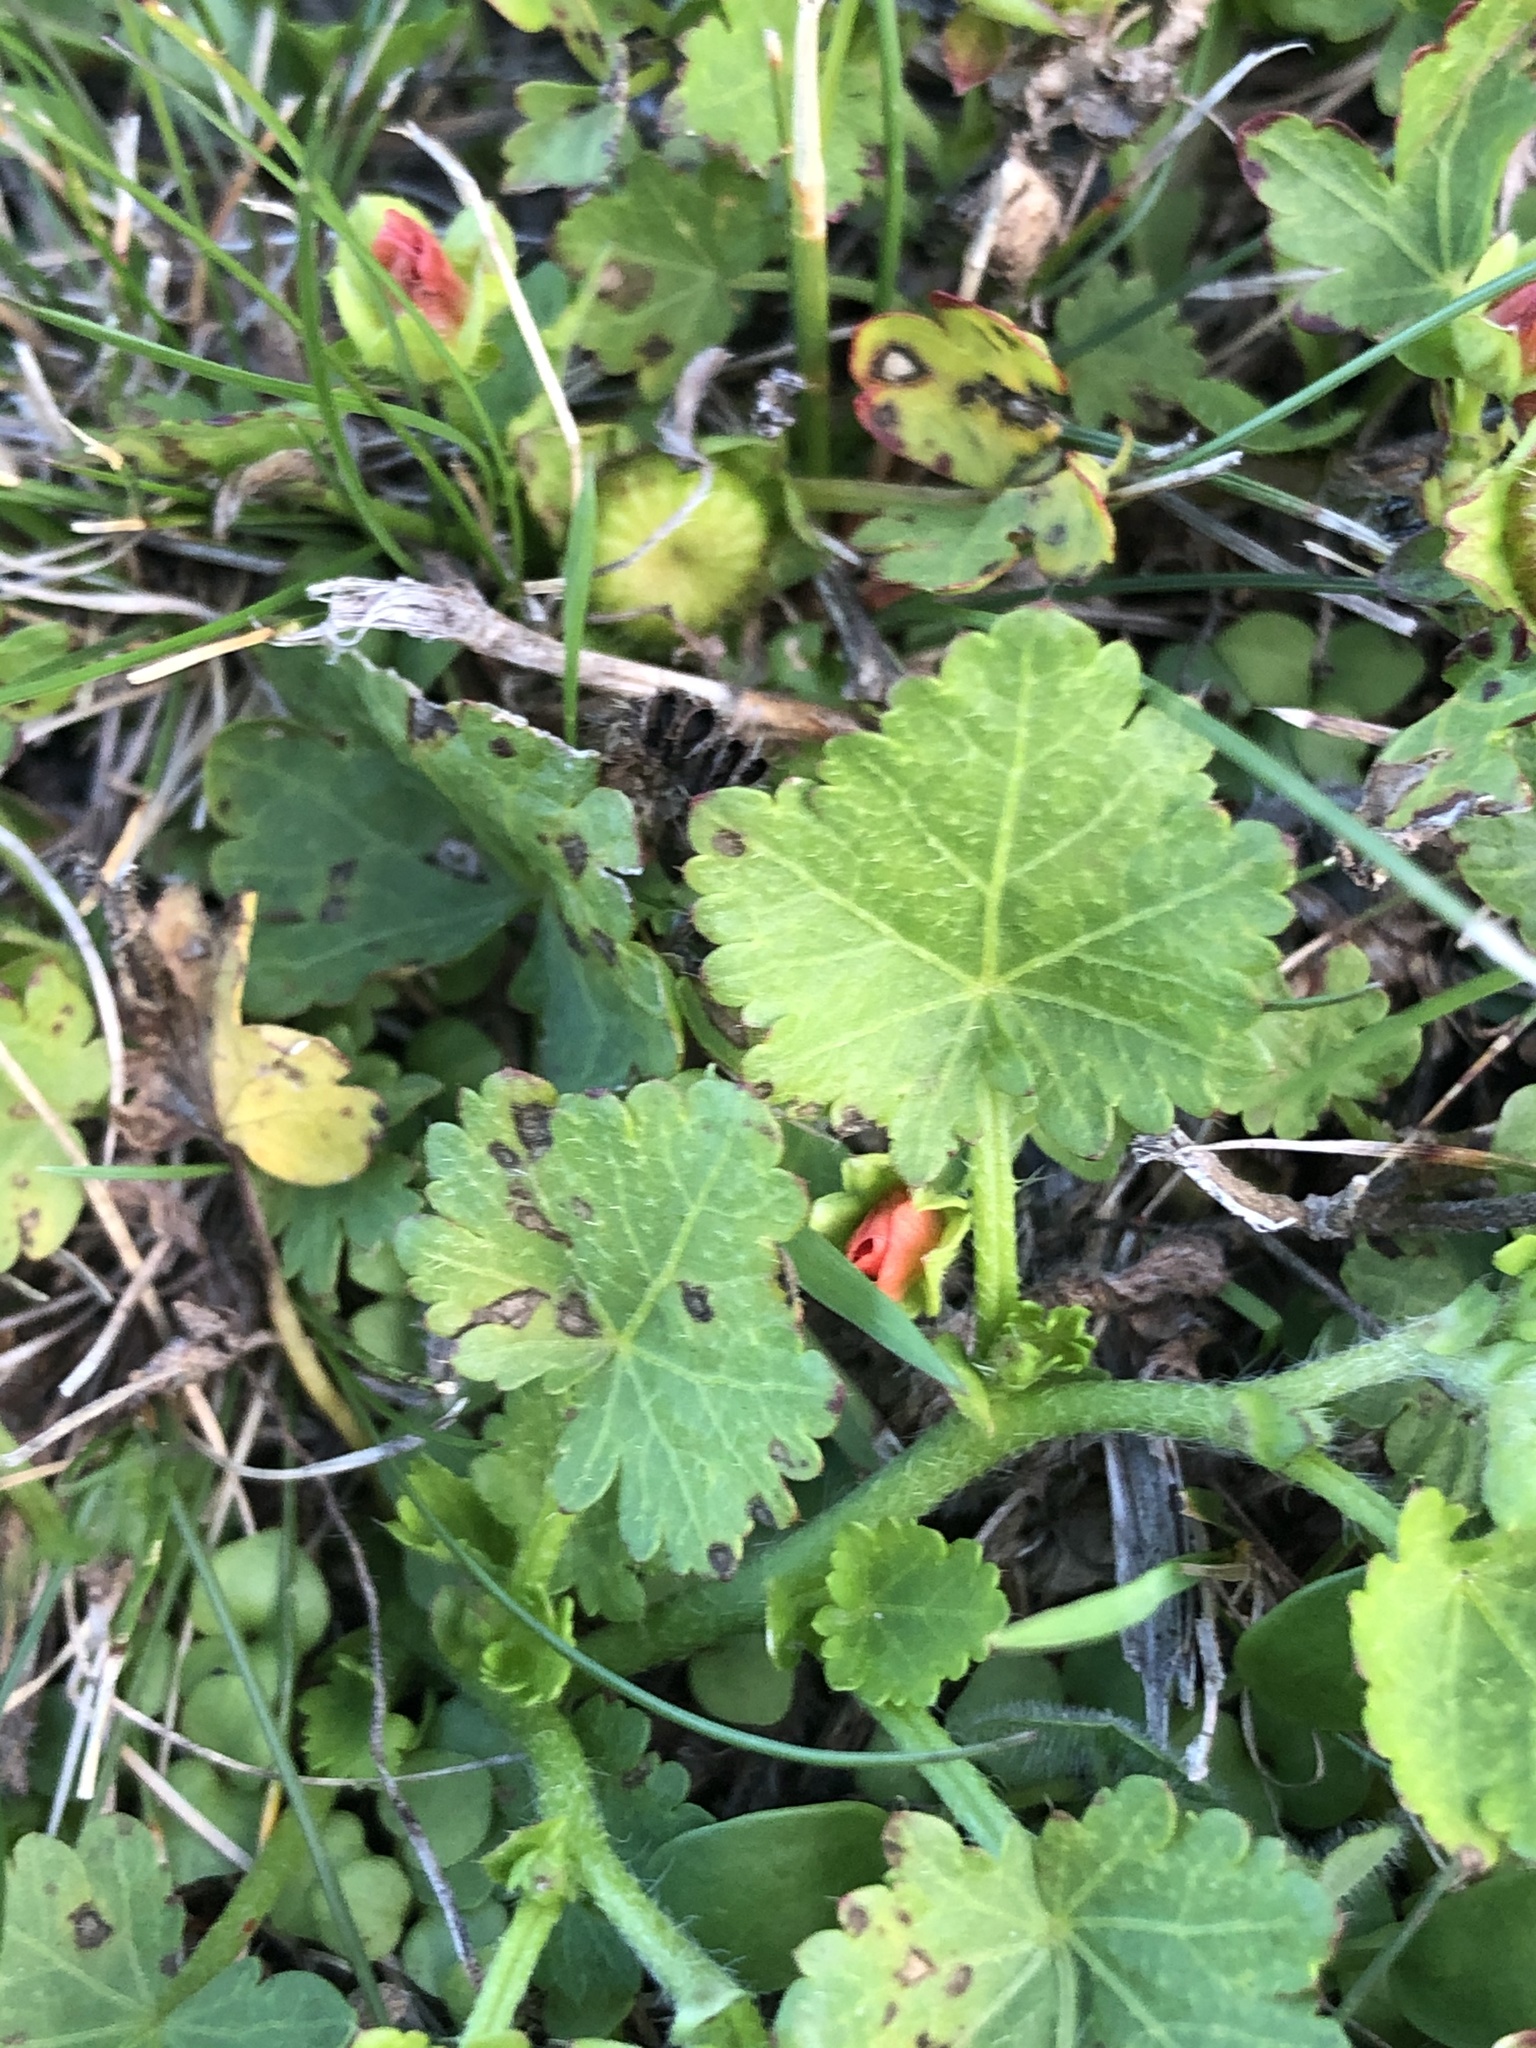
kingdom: Plantae
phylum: Tracheophyta
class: Magnoliopsida
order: Malvales
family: Malvaceae
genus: Modiola
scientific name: Modiola caroliniana
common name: Carolina bristlemallow
